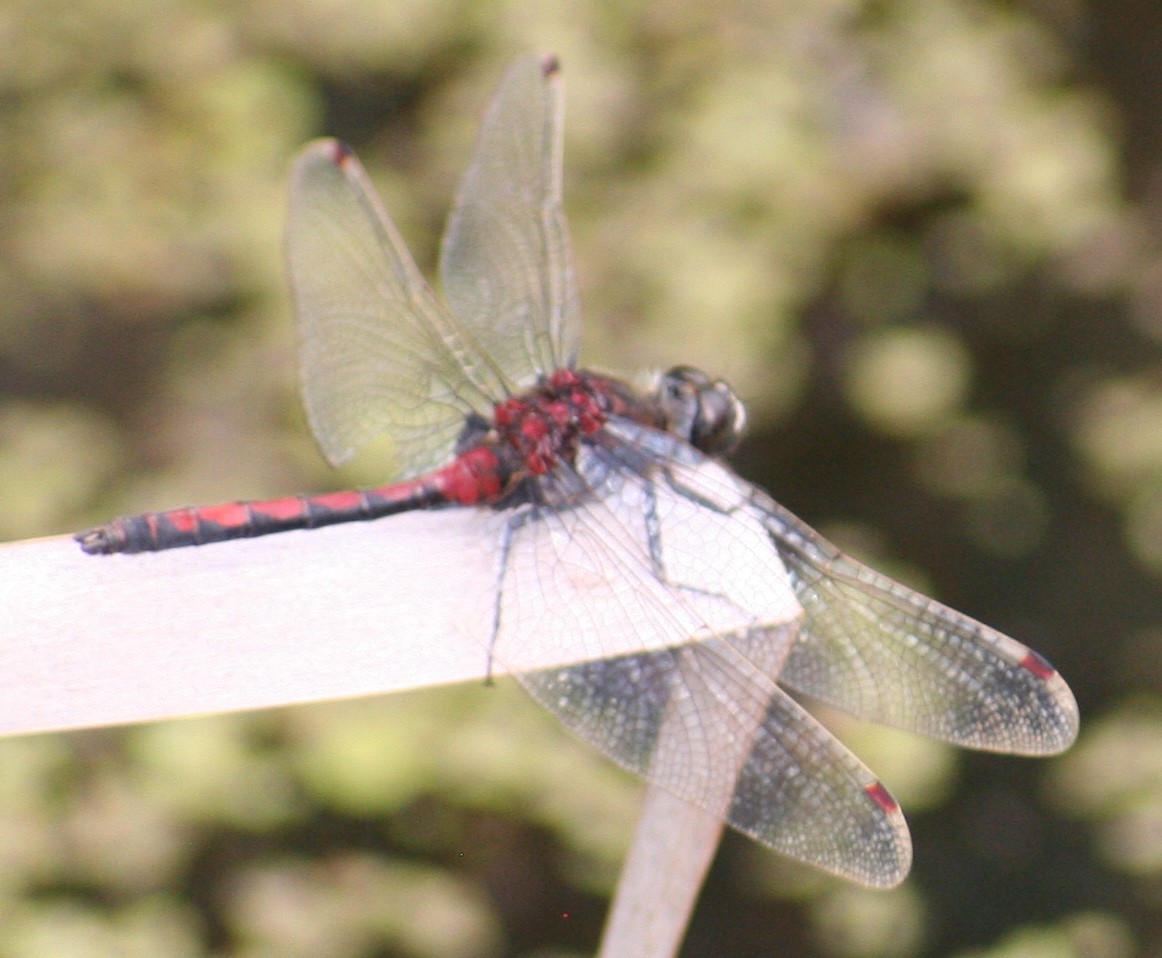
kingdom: Animalia
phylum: Arthropoda
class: Insecta
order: Odonata
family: Libellulidae
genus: Leucorrhinia
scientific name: Leucorrhinia borealis
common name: Boreal whiteface
